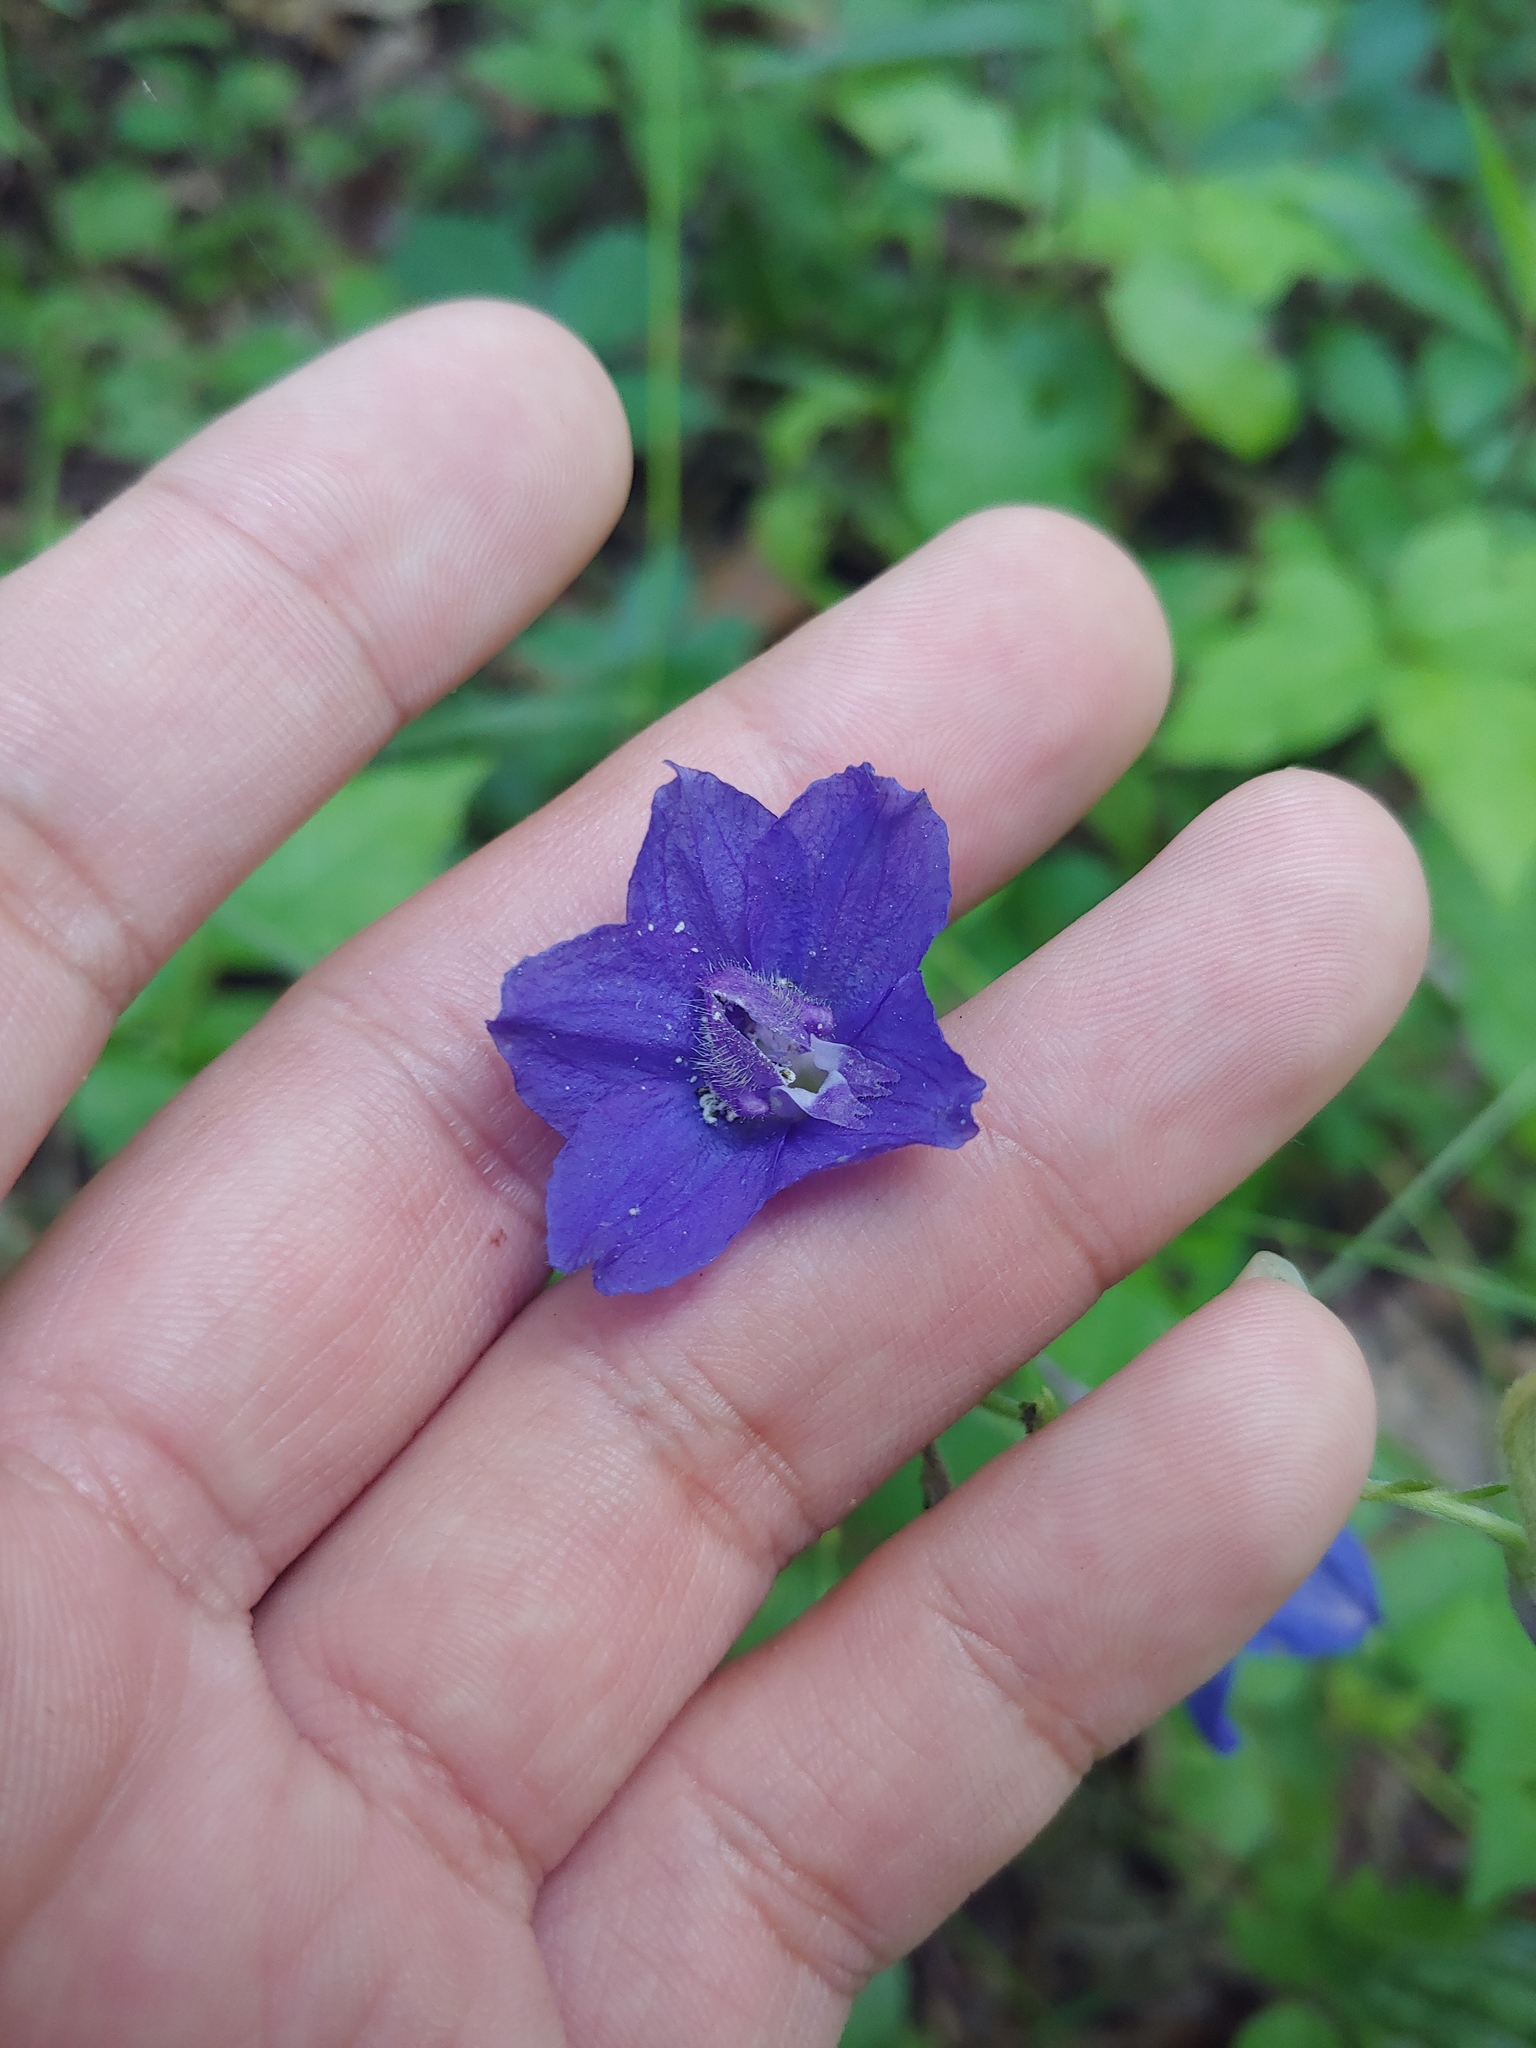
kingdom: Plantae
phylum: Tracheophyta
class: Magnoliopsida
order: Ranunculales
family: Ranunculaceae
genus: Delphinium
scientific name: Delphinium alabamicum
